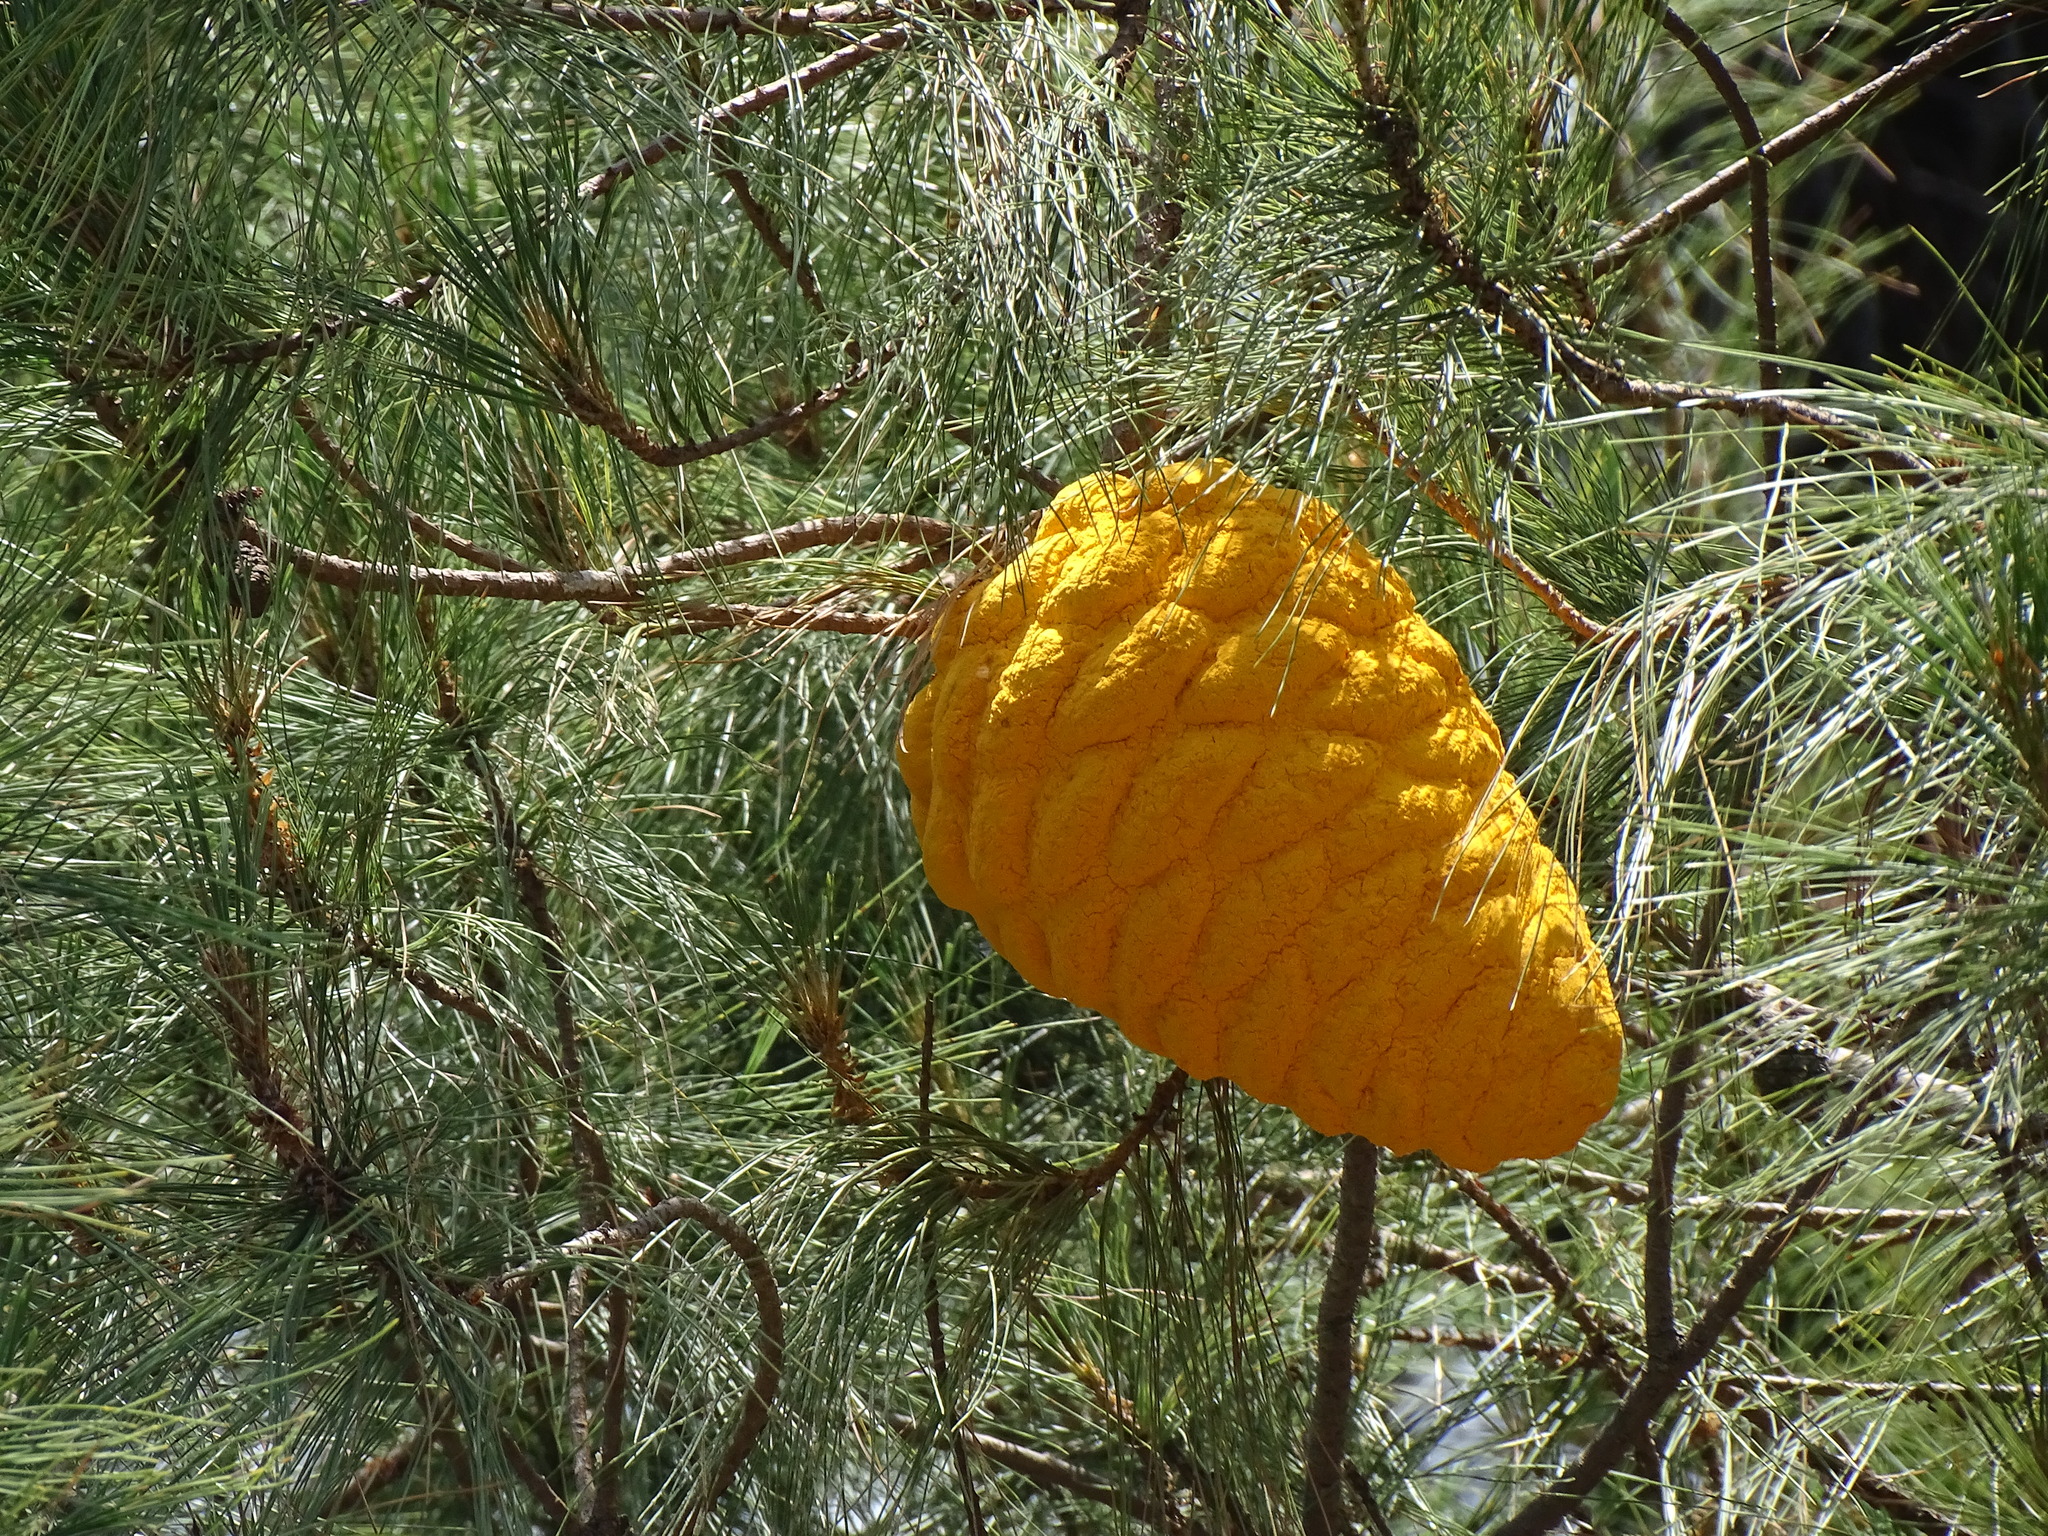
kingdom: Fungi
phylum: Basidiomycota
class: Pucciniomycetes
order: Pucciniales
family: Cronartiaceae
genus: Cronartium
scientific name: Cronartium conigenum
